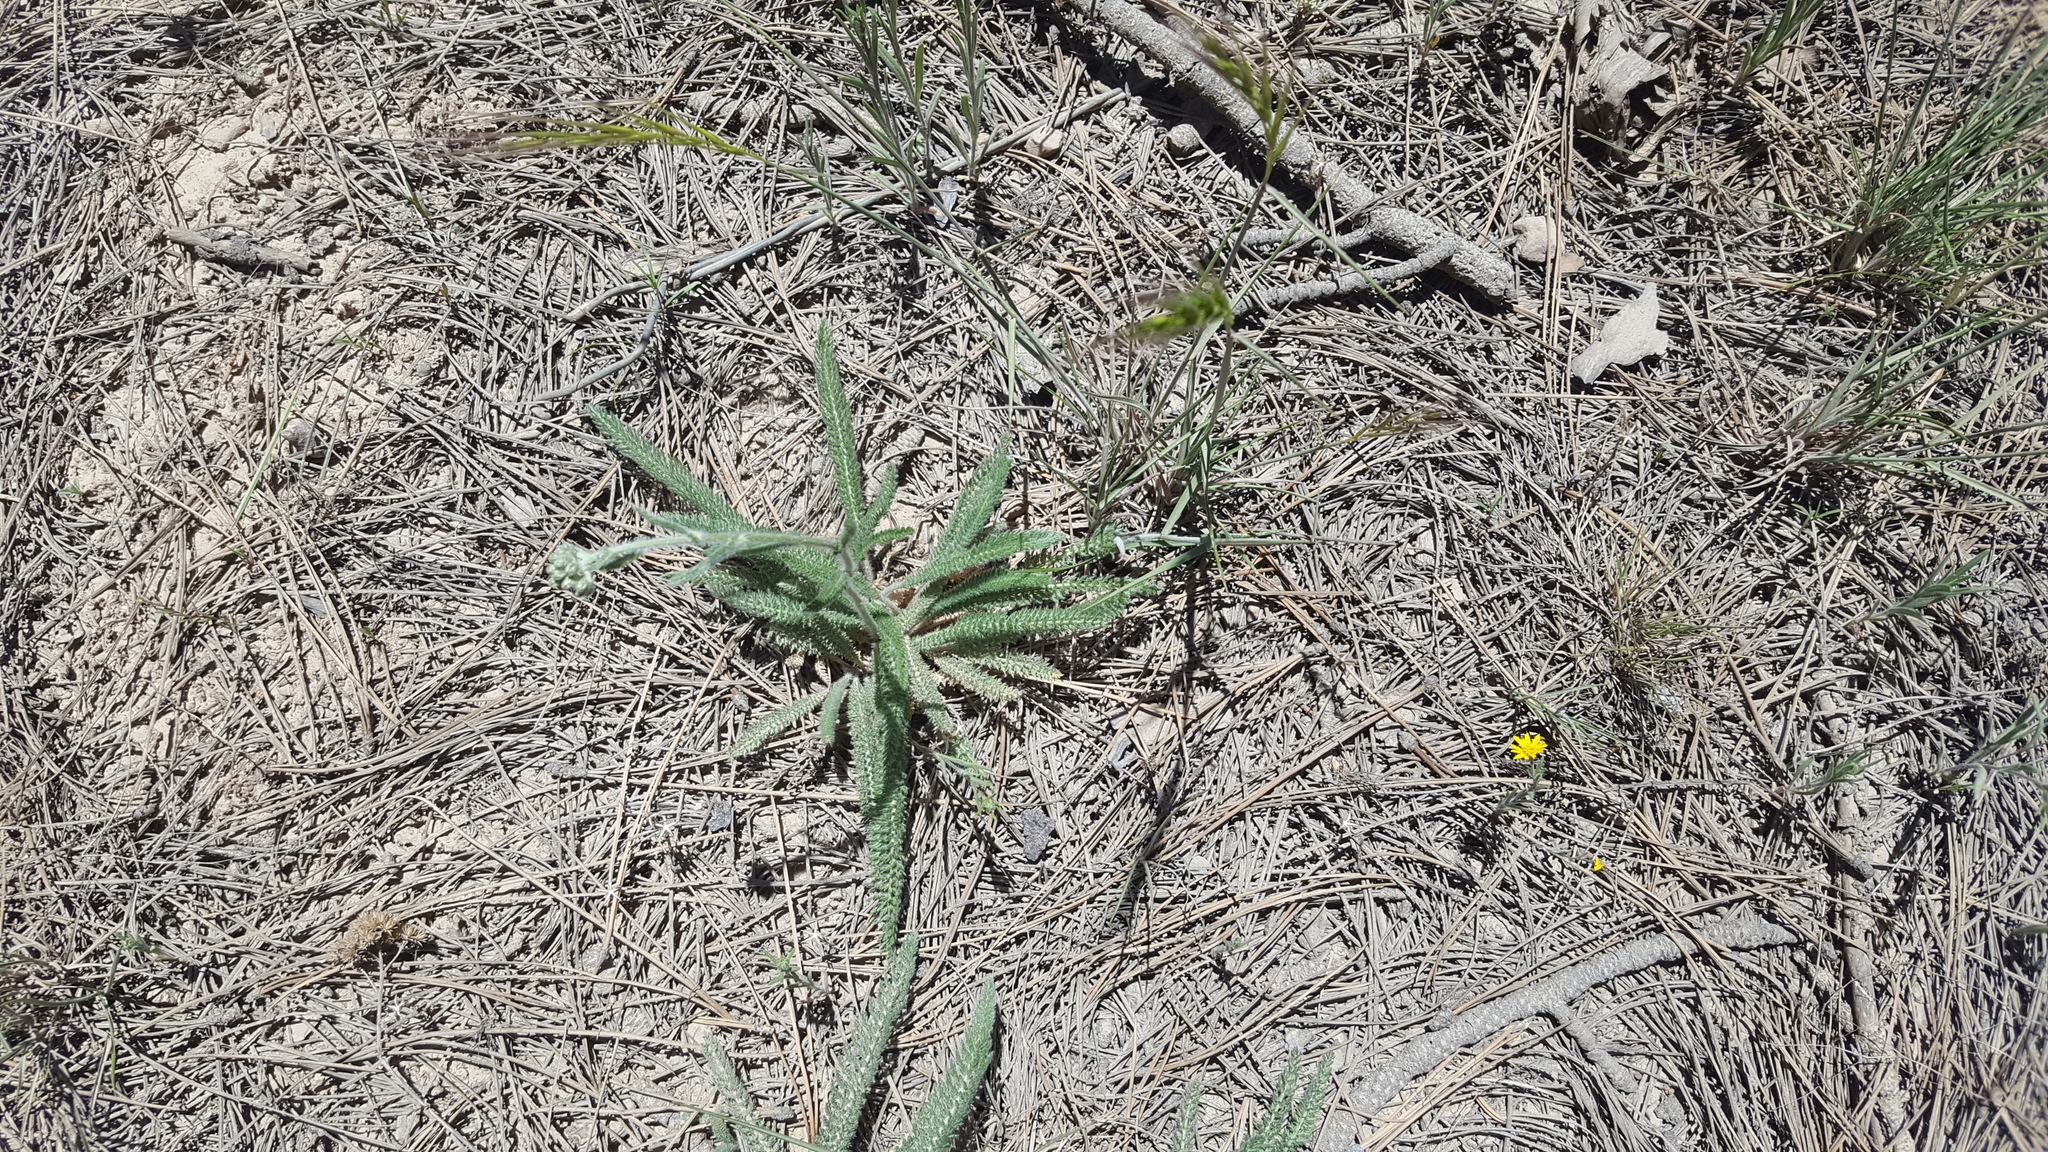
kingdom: Plantae
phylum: Tracheophyta
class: Magnoliopsida
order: Asterales
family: Asteraceae
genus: Achillea
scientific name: Achillea millefolium
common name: Yarrow
